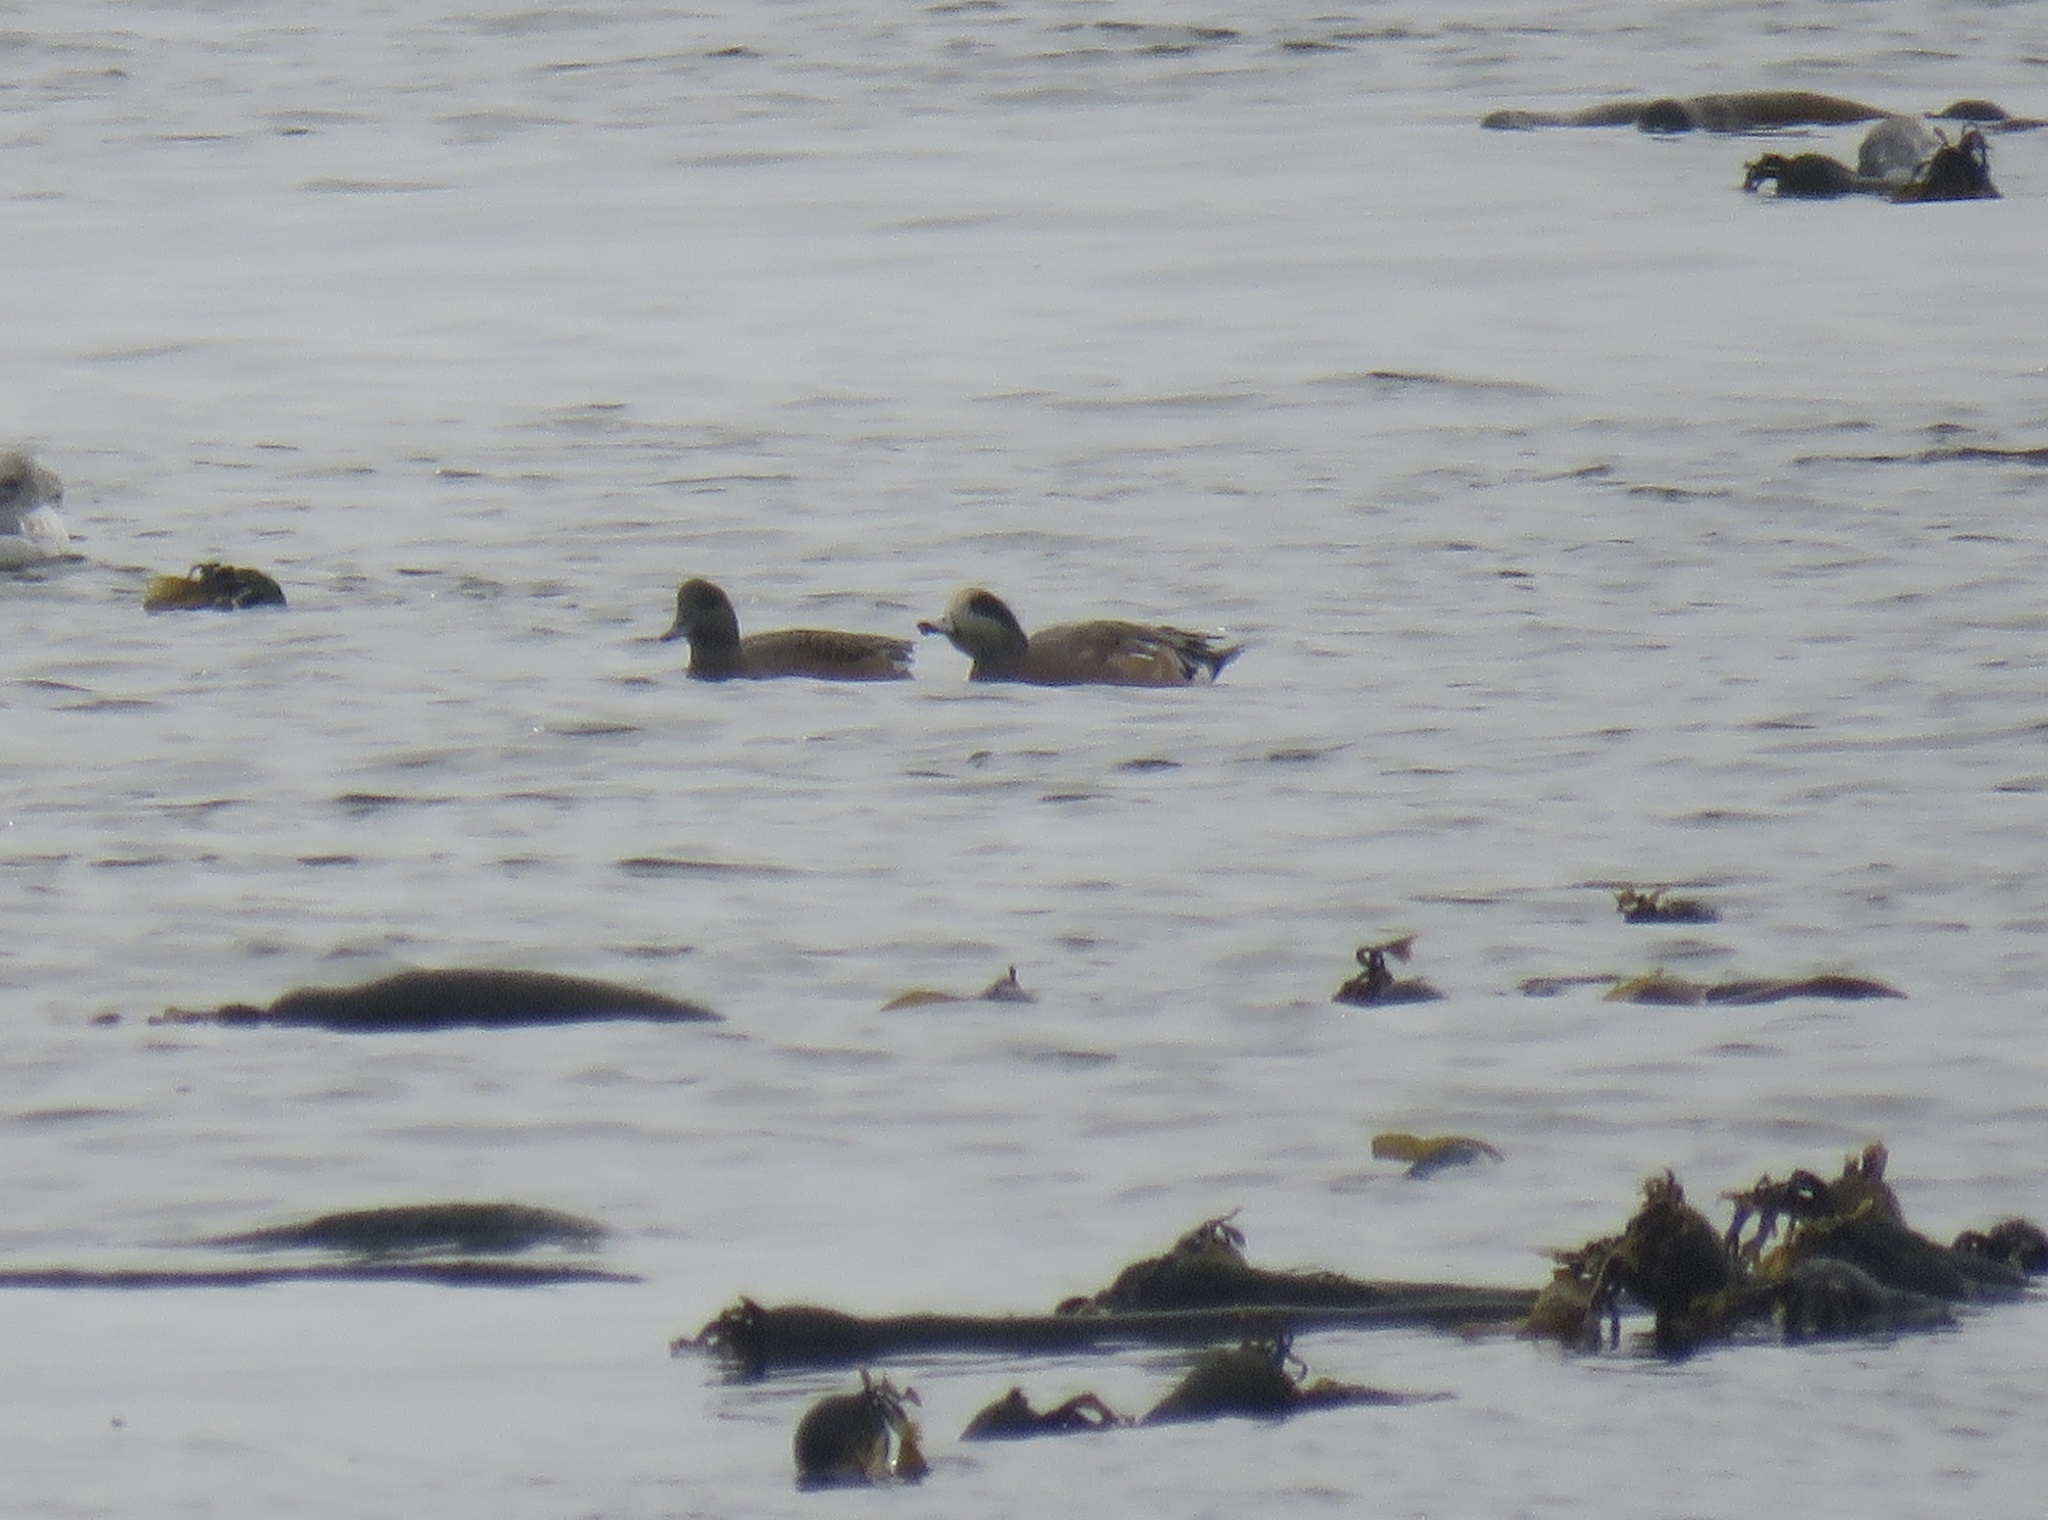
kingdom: Animalia
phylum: Chordata
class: Aves
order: Anseriformes
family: Anatidae
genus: Mareca
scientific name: Mareca americana
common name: American wigeon
